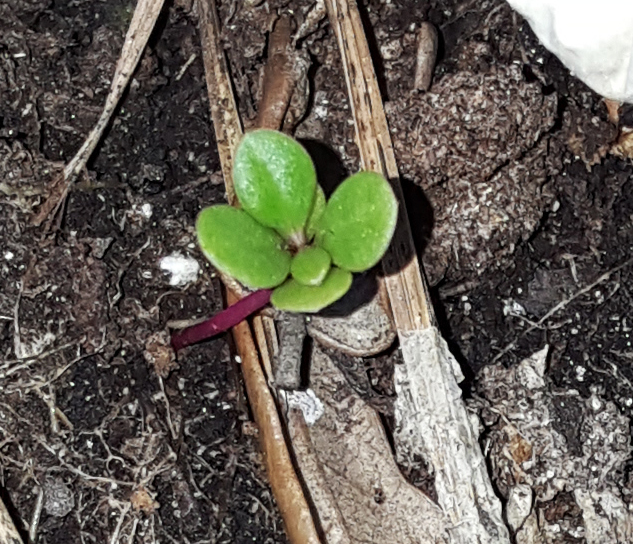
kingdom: Plantae
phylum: Tracheophyta
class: Magnoliopsida
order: Caryophyllales
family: Talinaceae
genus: Talinum
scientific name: Talinum paniculatum
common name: Jewels of opar
